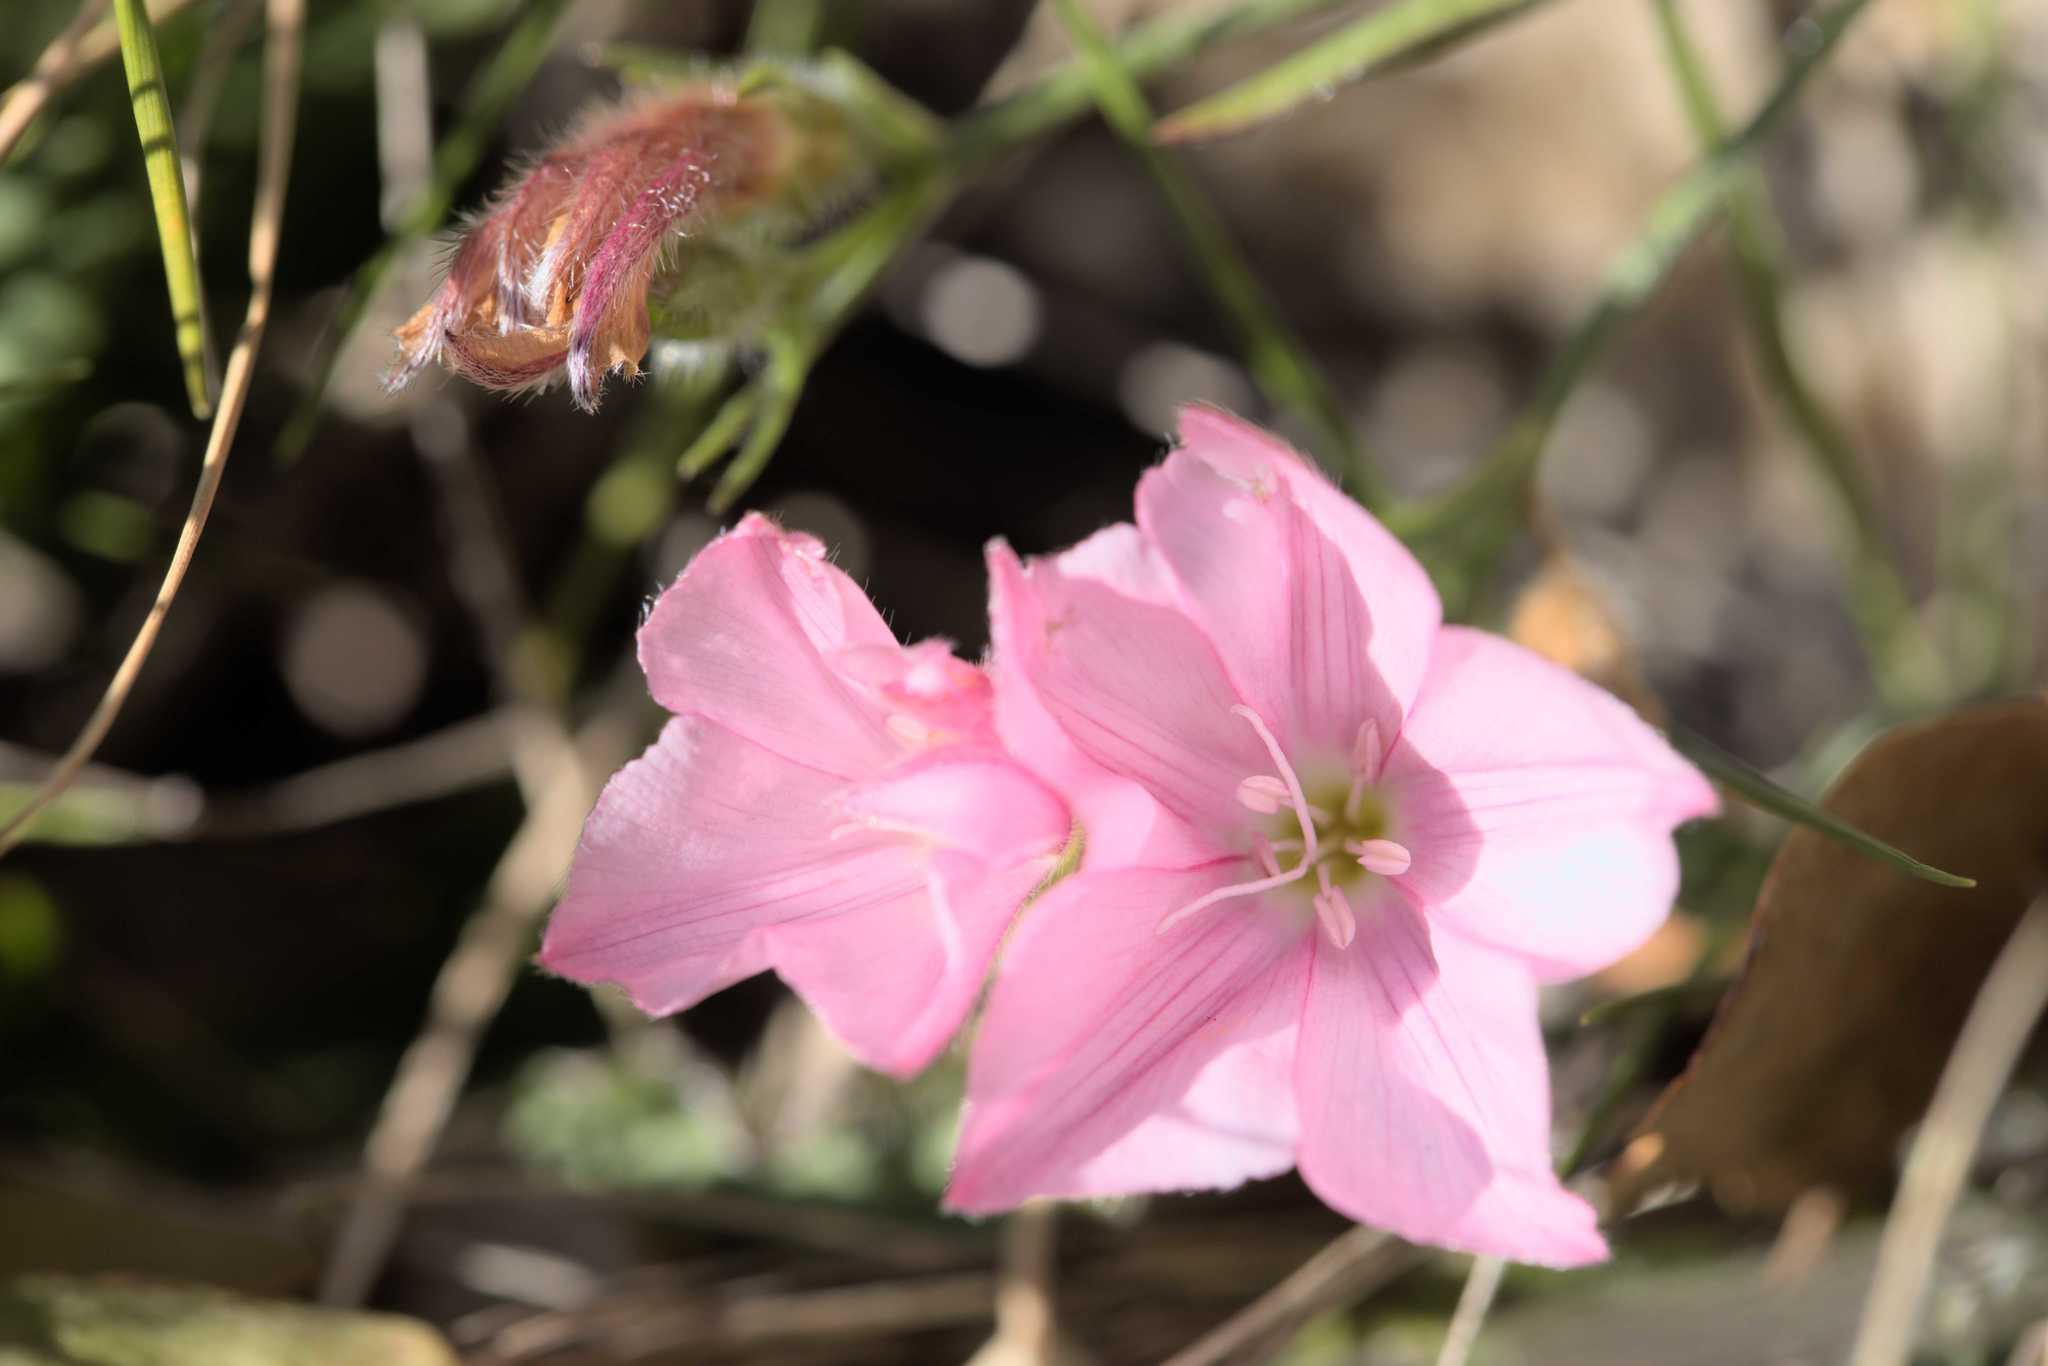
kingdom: Plantae
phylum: Tracheophyta
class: Magnoliopsida
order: Solanales
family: Convolvulaceae
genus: Convolvulus
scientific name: Convolvulus cantabrica
